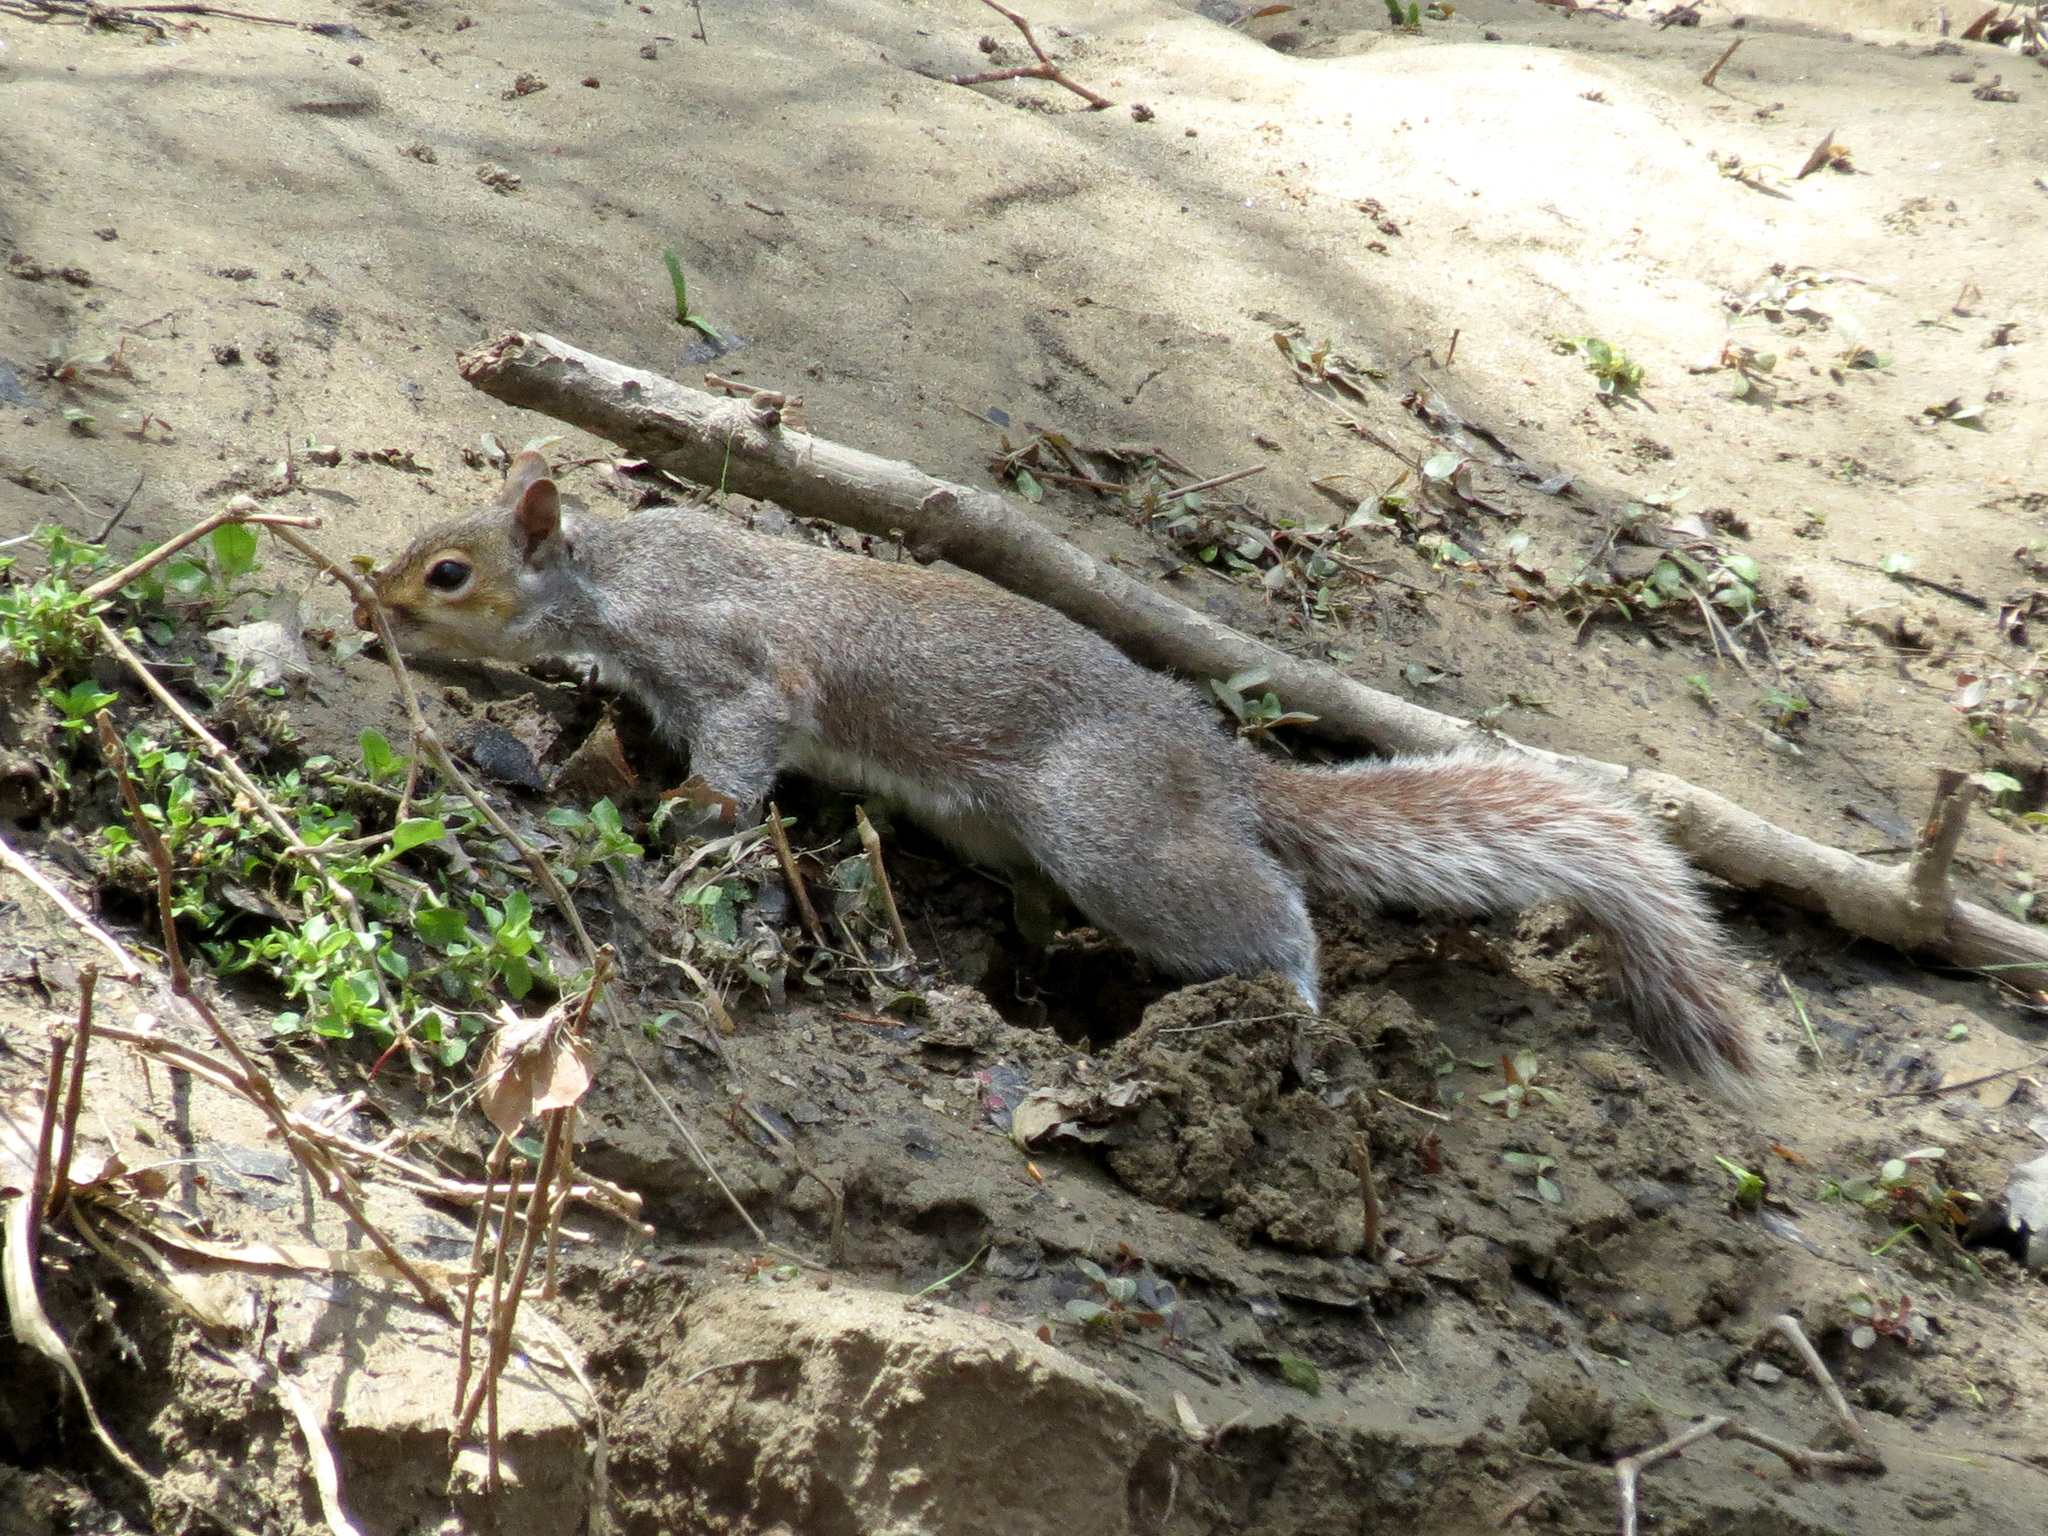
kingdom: Animalia
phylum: Chordata
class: Mammalia
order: Rodentia
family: Sciuridae
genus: Sciurus
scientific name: Sciurus carolinensis
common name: Eastern gray squirrel
